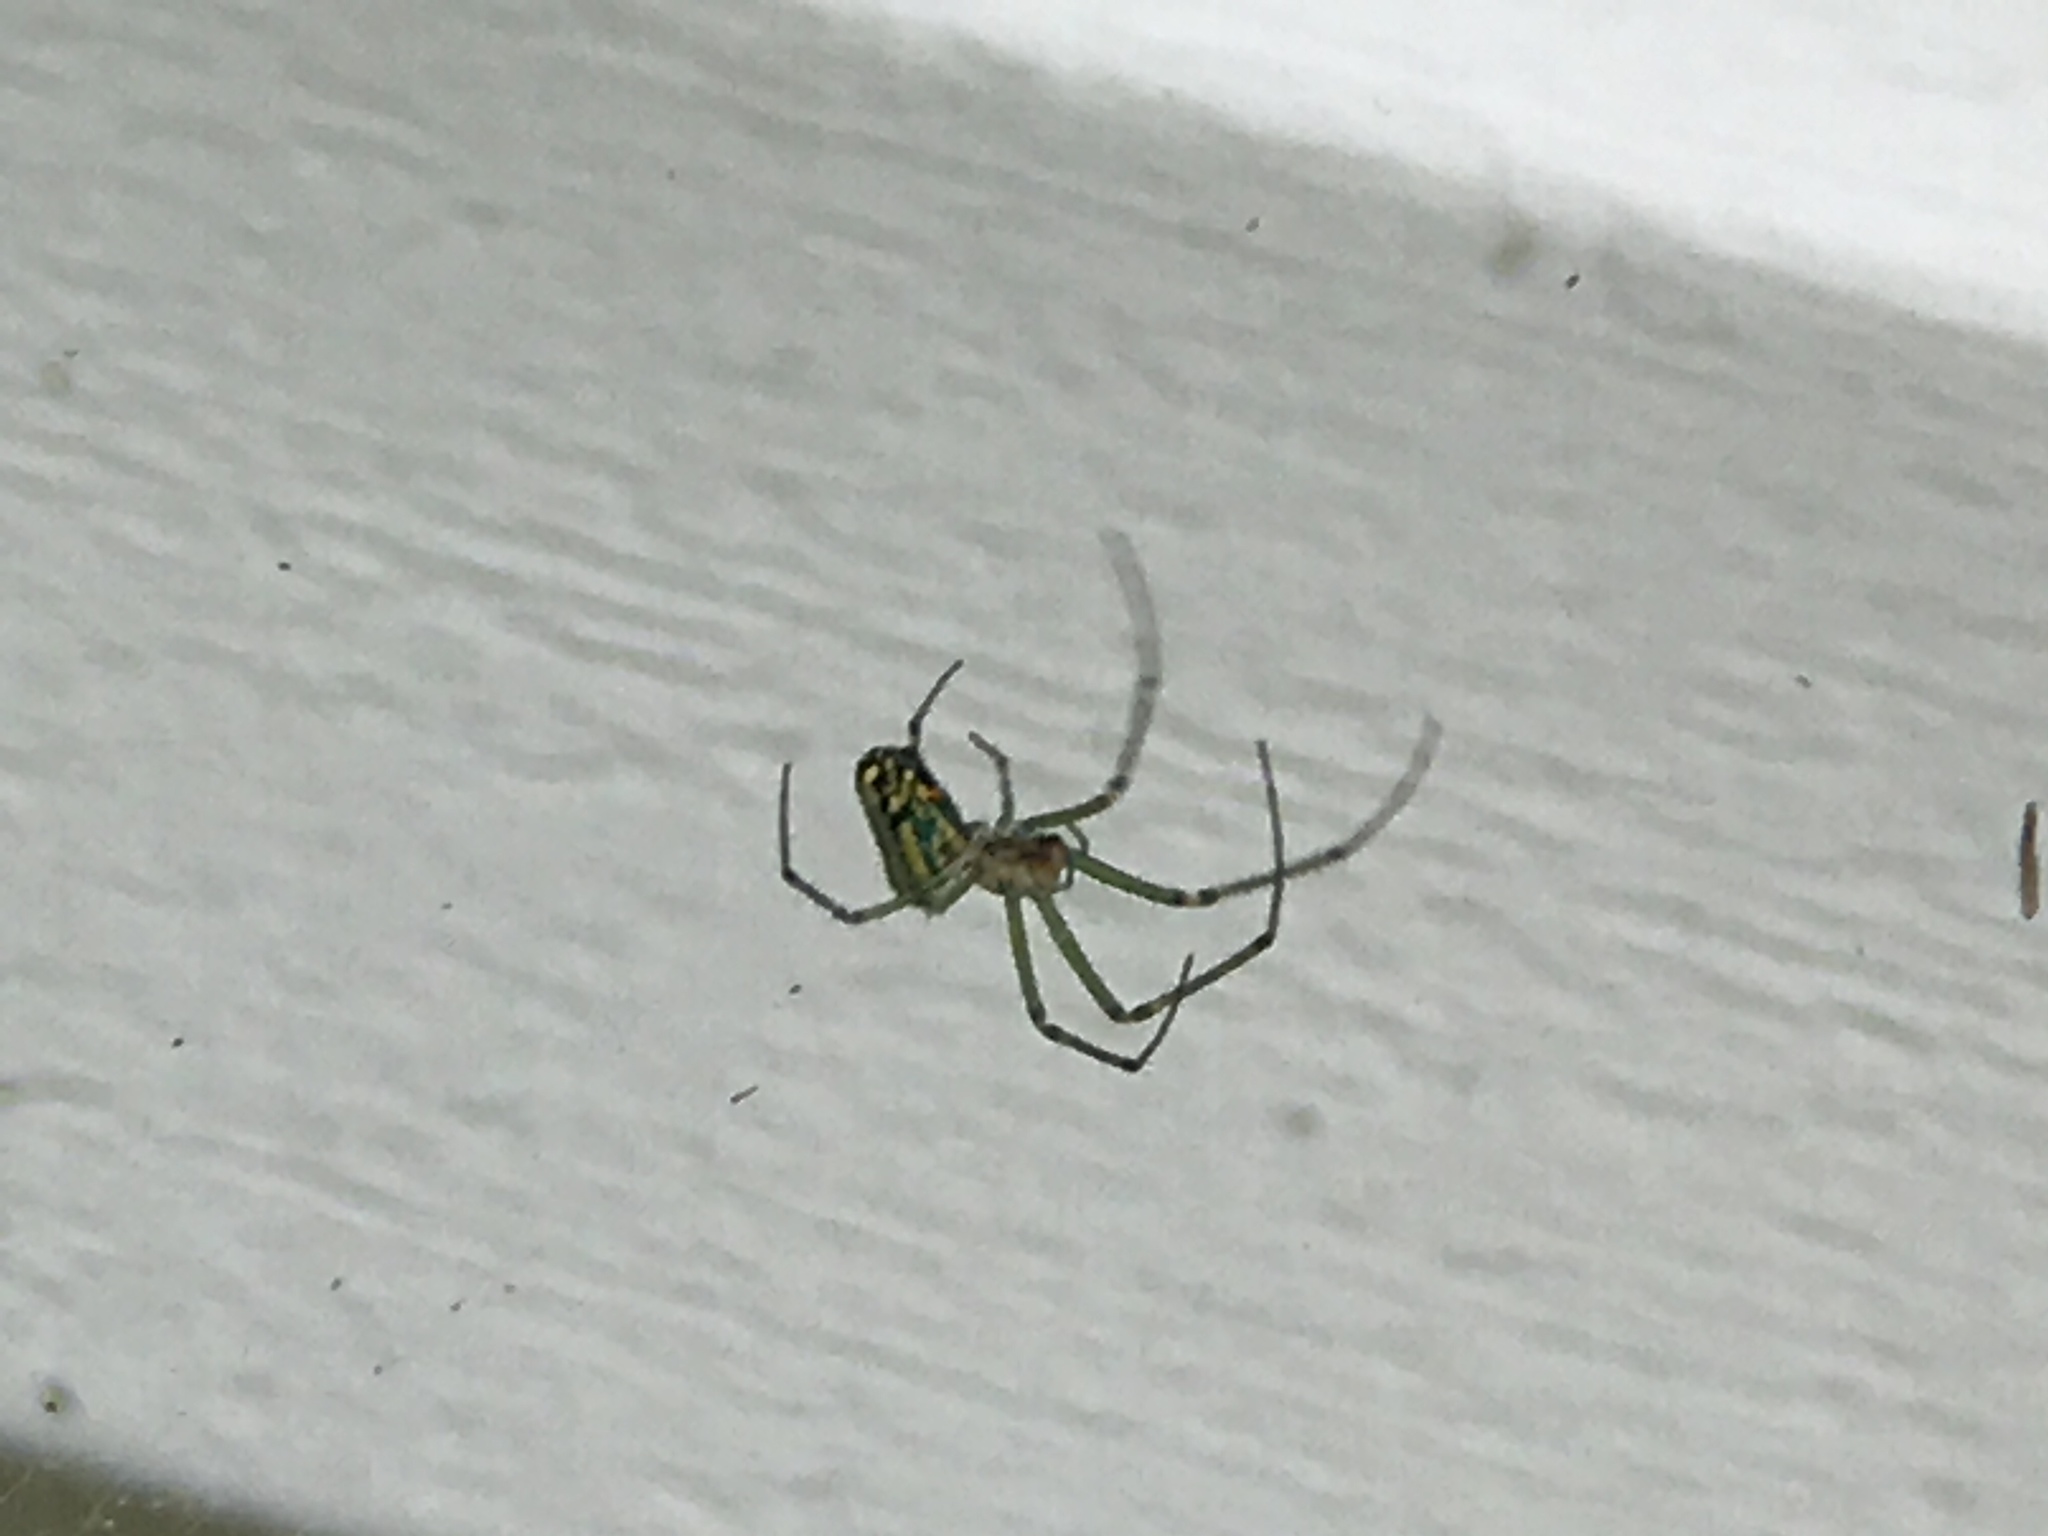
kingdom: Animalia
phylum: Arthropoda
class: Arachnida
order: Araneae
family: Tetragnathidae
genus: Leucauge
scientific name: Leucauge venusta
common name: Longjawed orb weavers
